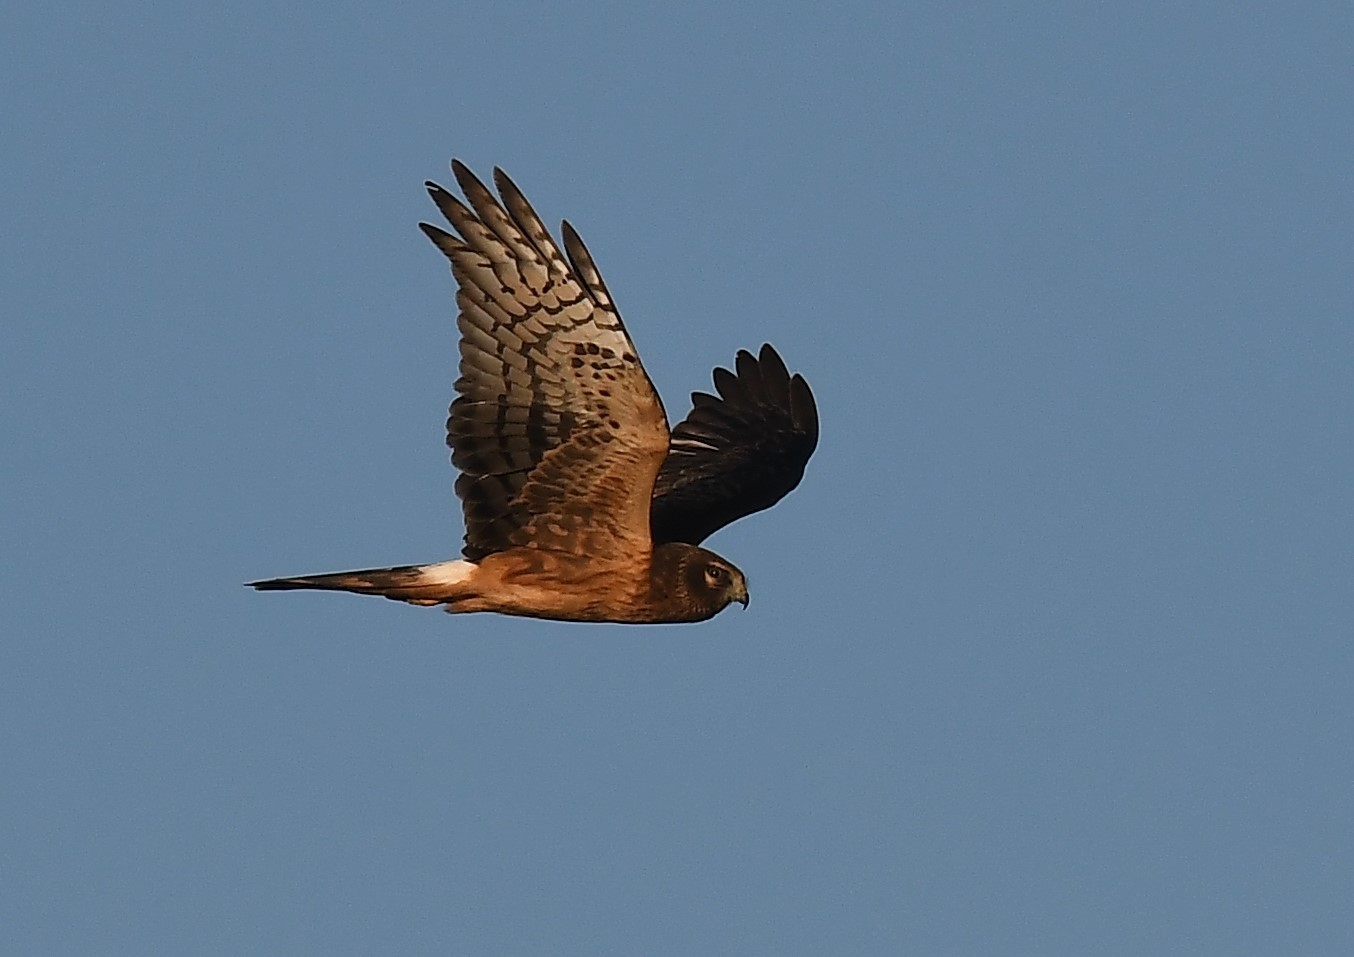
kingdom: Animalia
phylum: Chordata
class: Aves
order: Accipitriformes
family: Accipitridae
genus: Circus
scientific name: Circus cyaneus
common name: Hen harrier
